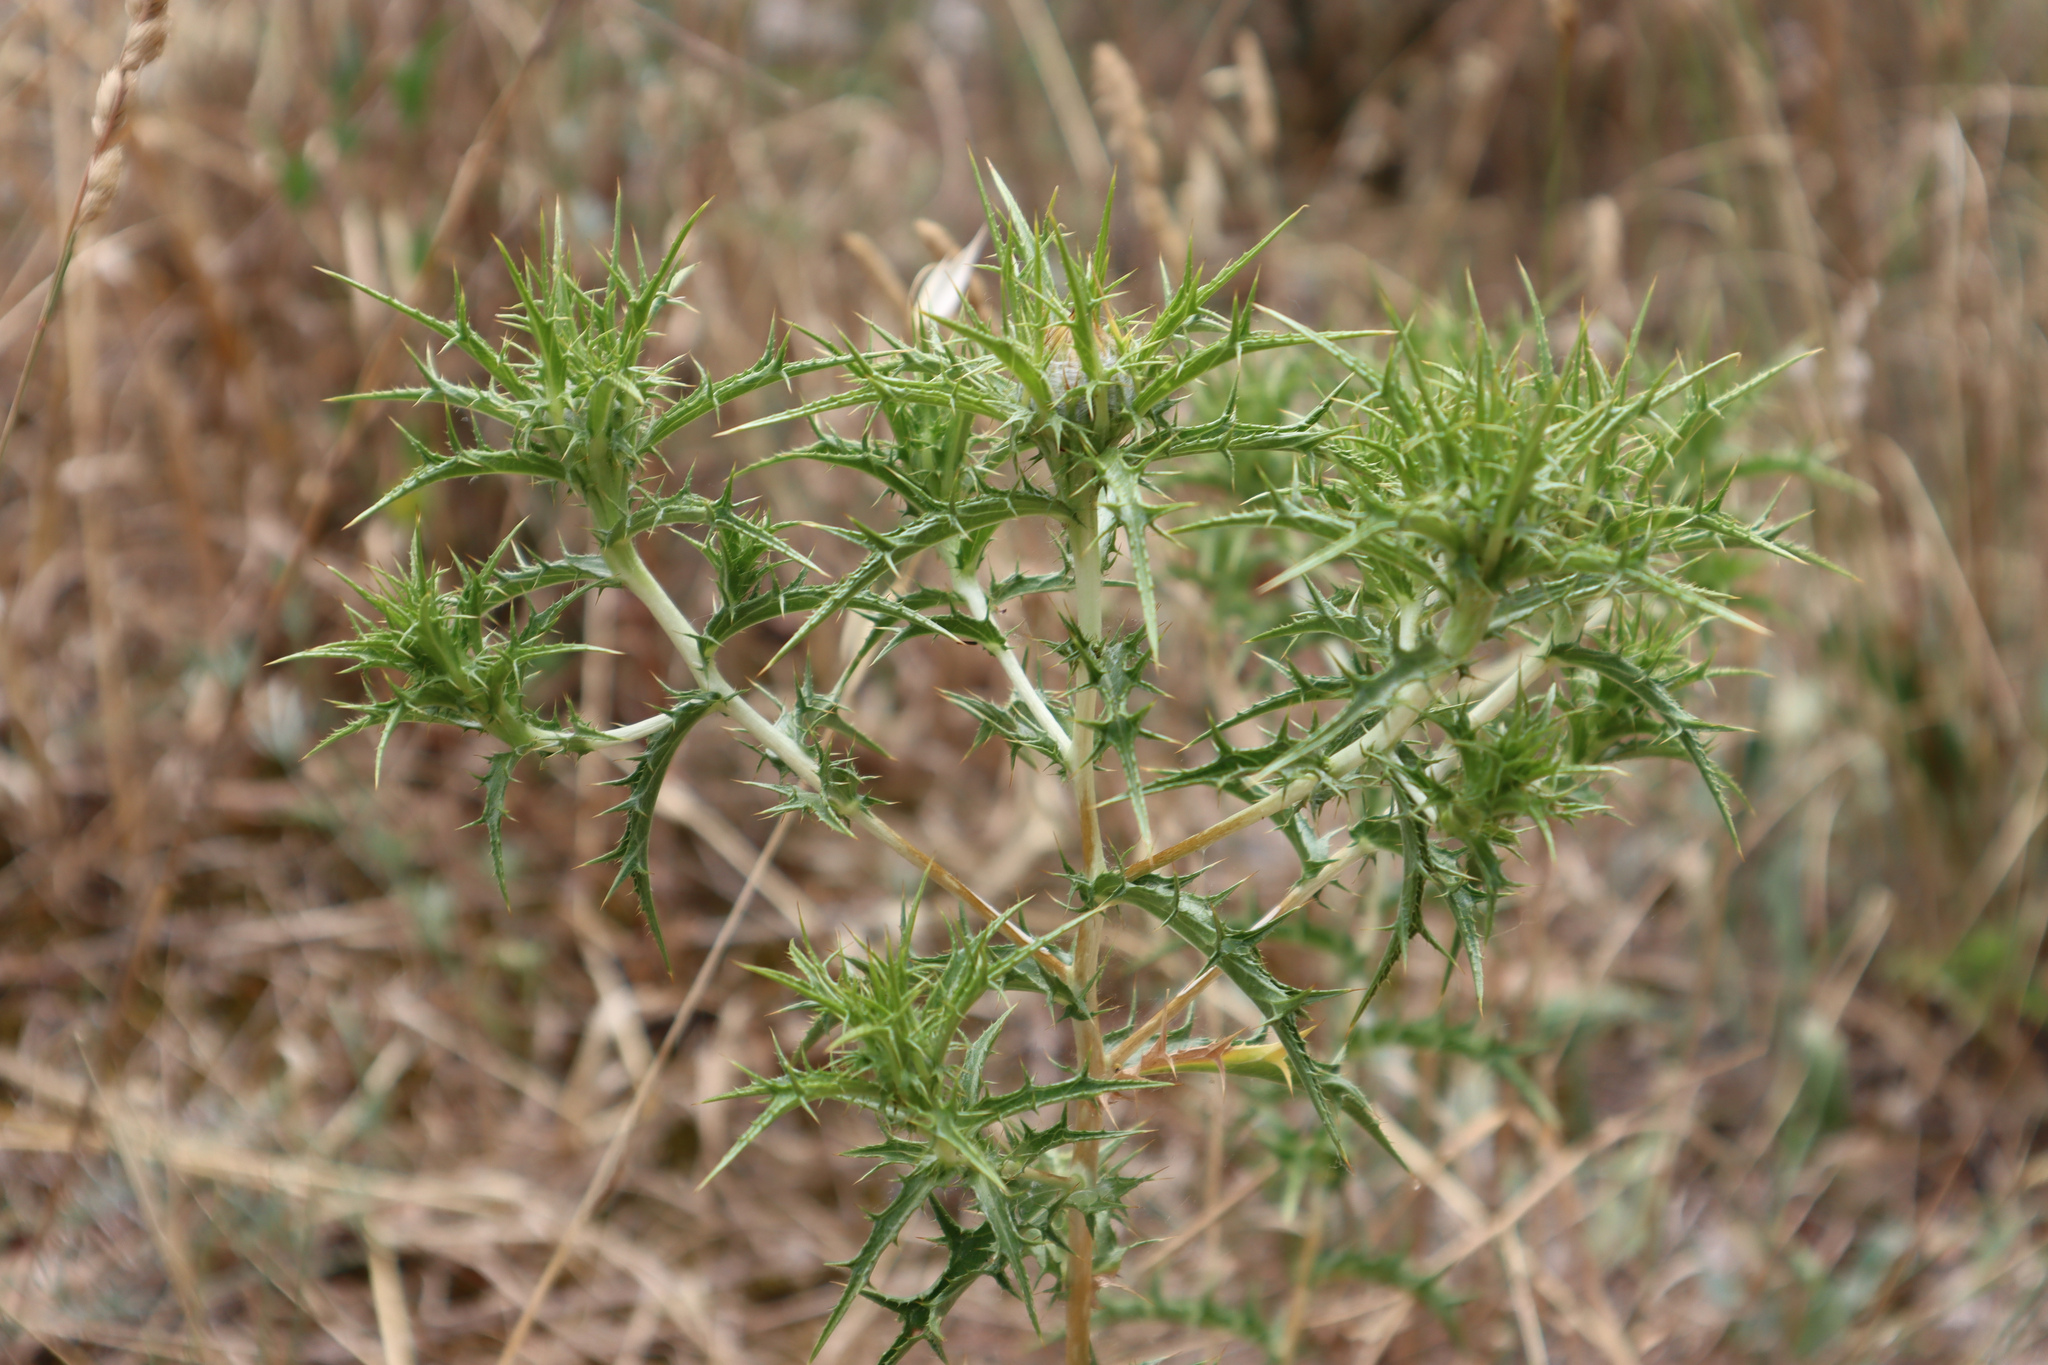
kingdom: Plantae
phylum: Tracheophyta
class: Magnoliopsida
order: Asterales
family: Asteraceae
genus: Carthamus
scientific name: Carthamus lanatus
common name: Downy safflower
